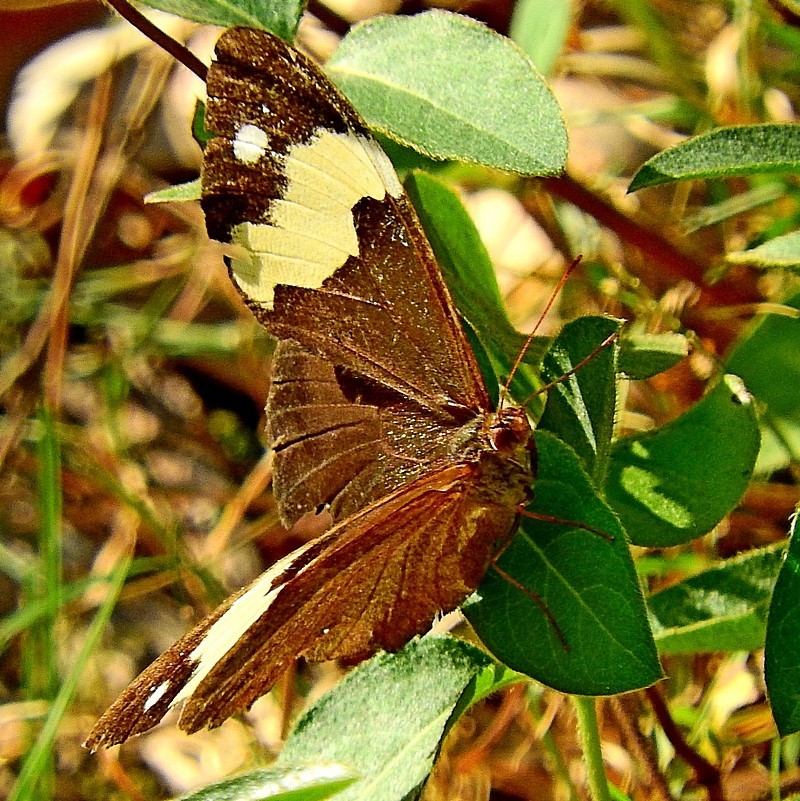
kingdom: Animalia
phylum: Arthropoda
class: Insecta
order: Lepidoptera
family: Nymphalidae
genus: Heteronympha
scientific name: Heteronympha mirifica
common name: Wonder brown
